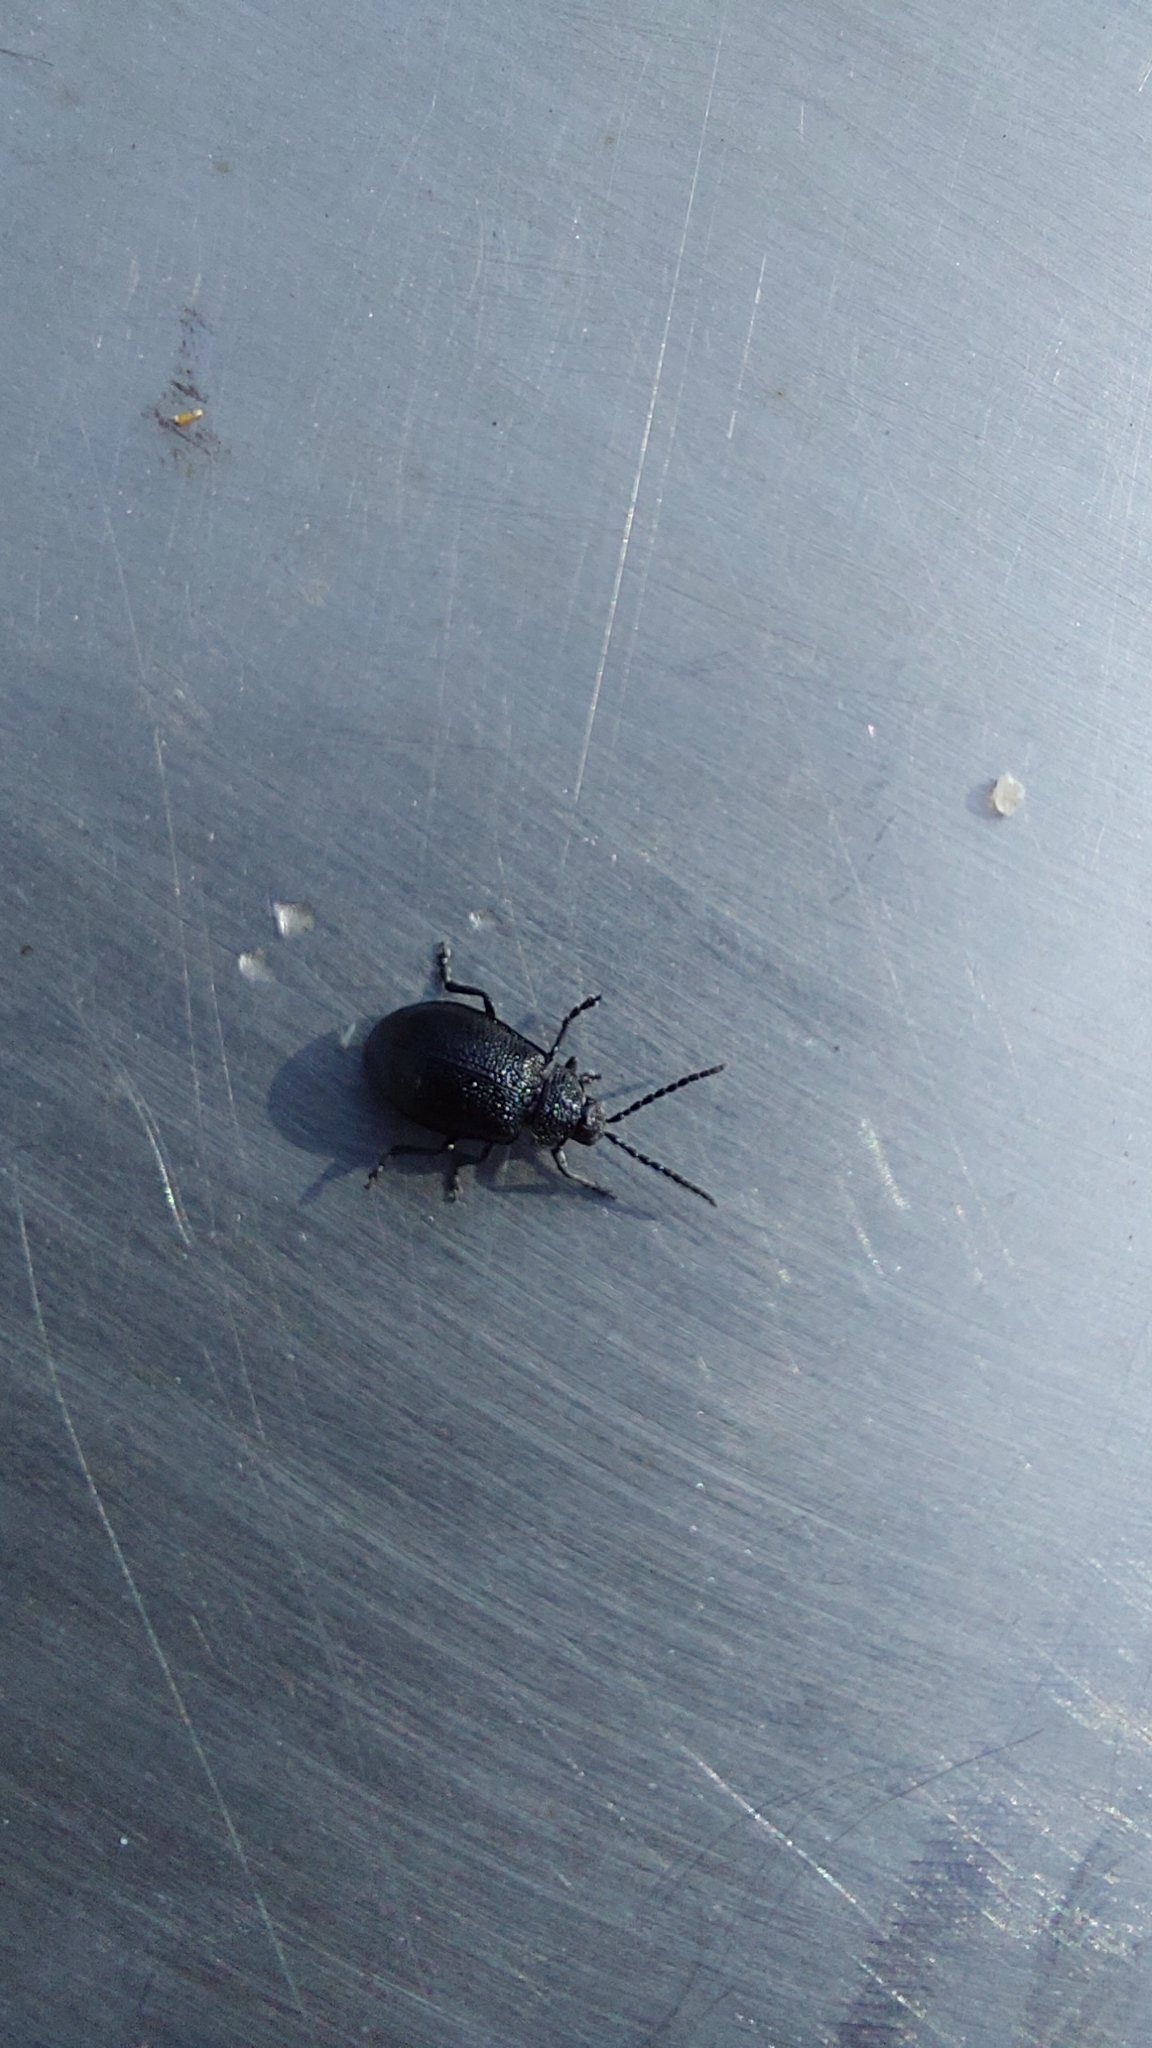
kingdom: Animalia
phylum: Arthropoda
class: Insecta
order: Coleoptera
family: Chrysomelidae
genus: Galeruca
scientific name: Galeruca tanaceti
